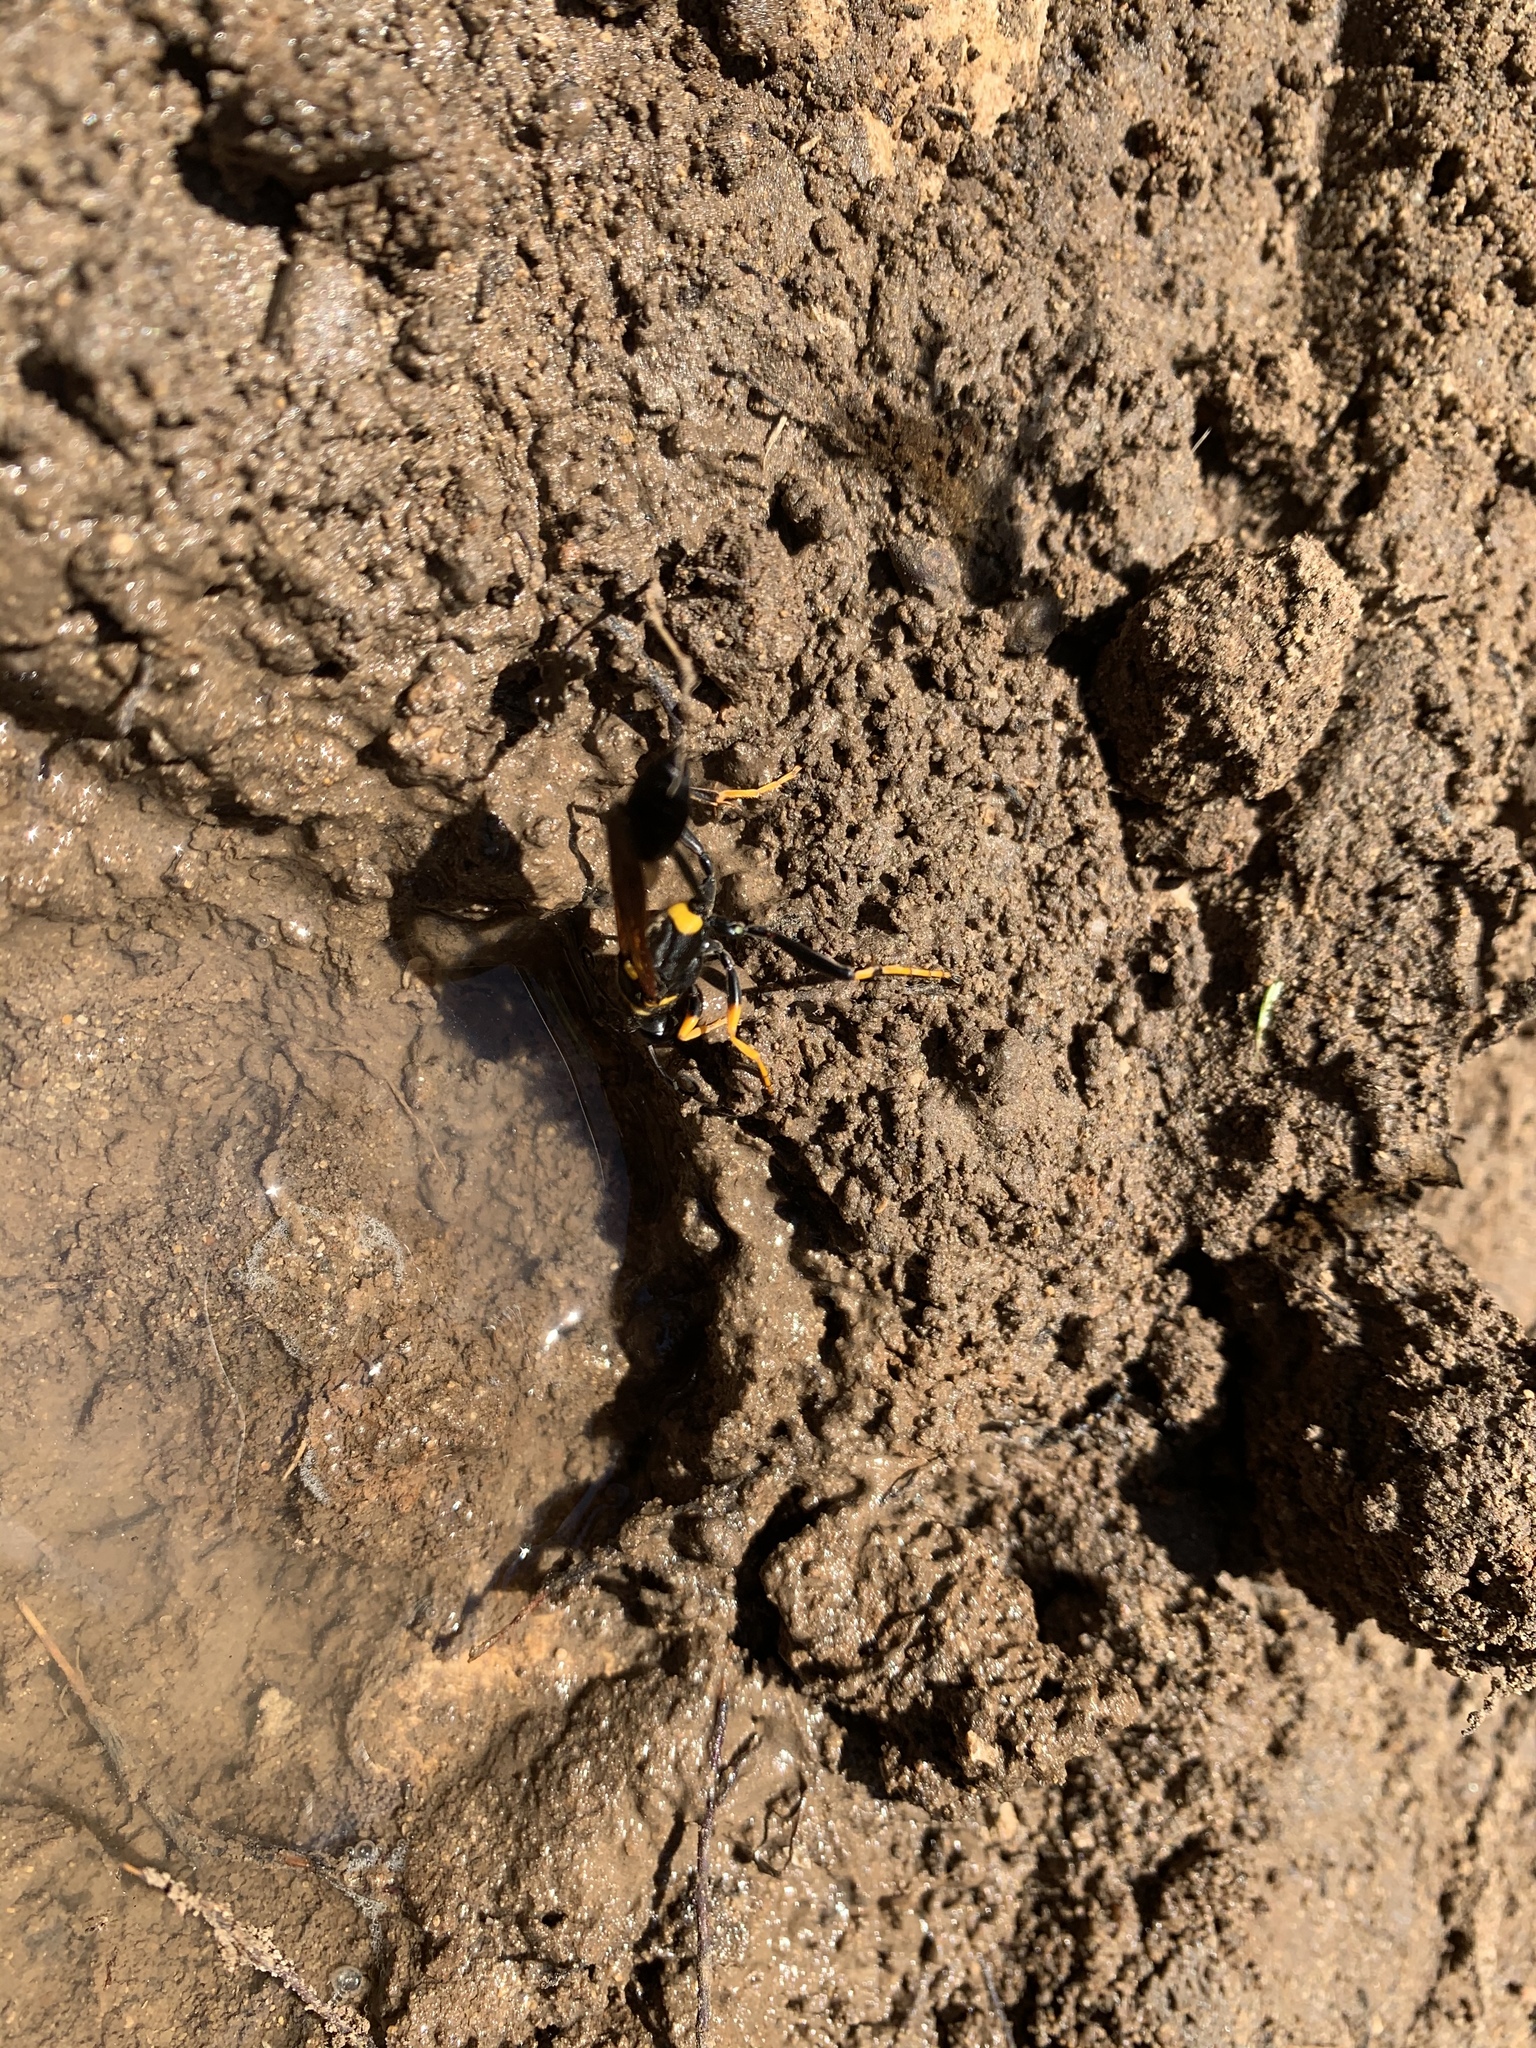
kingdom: Animalia
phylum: Arthropoda
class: Insecta
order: Hymenoptera
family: Sphecidae
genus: Sceliphron
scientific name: Sceliphron caementarium
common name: Mud dauber
